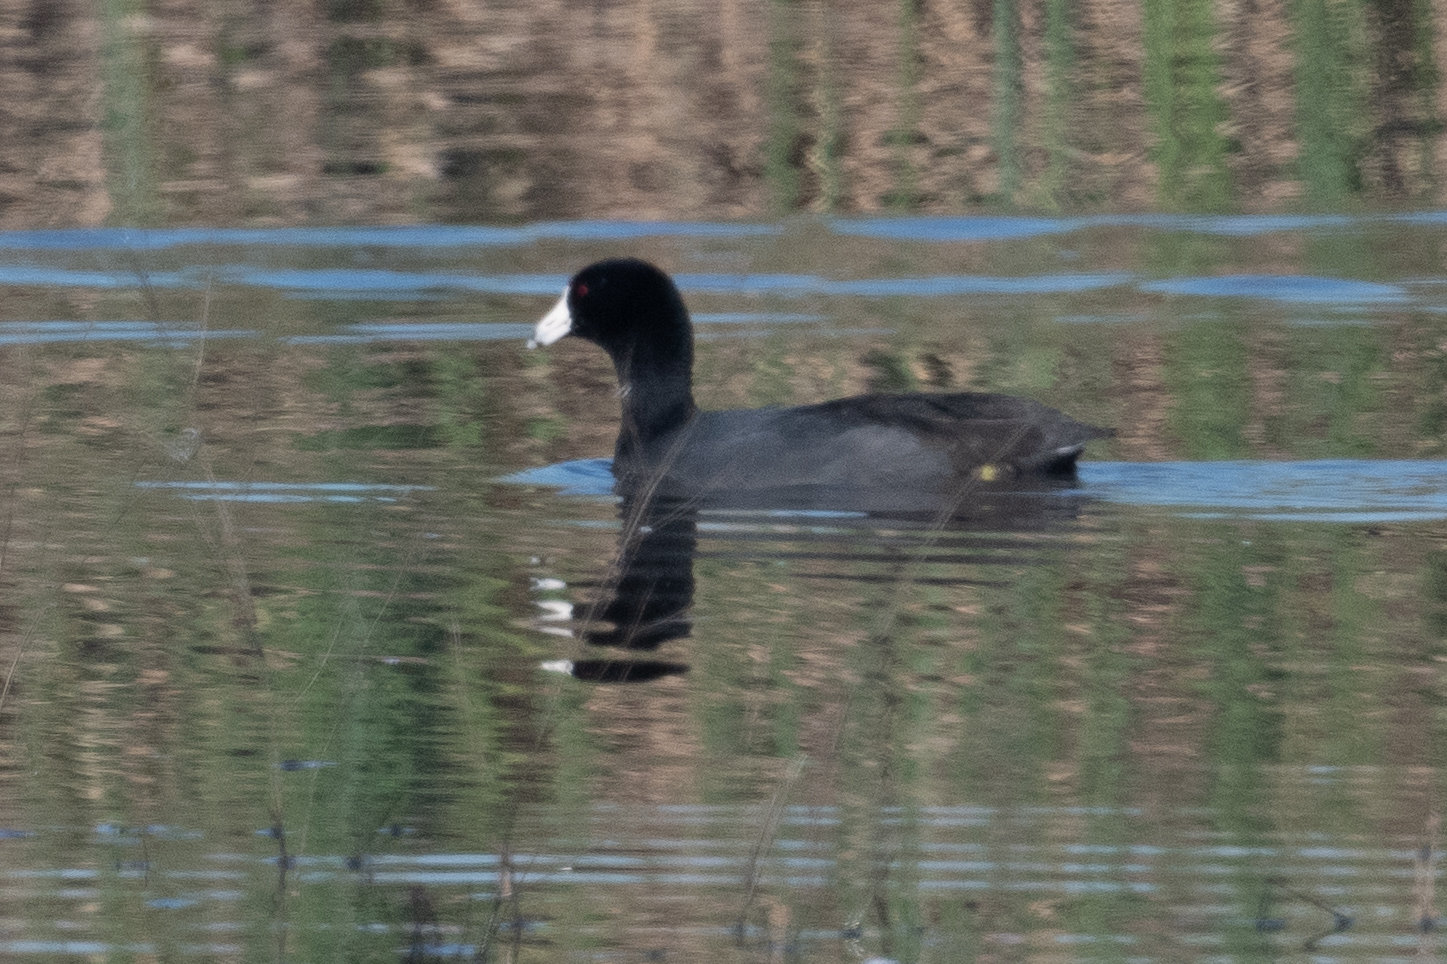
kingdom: Animalia
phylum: Chordata
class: Aves
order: Gruiformes
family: Rallidae
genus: Fulica
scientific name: Fulica americana
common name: American coot
